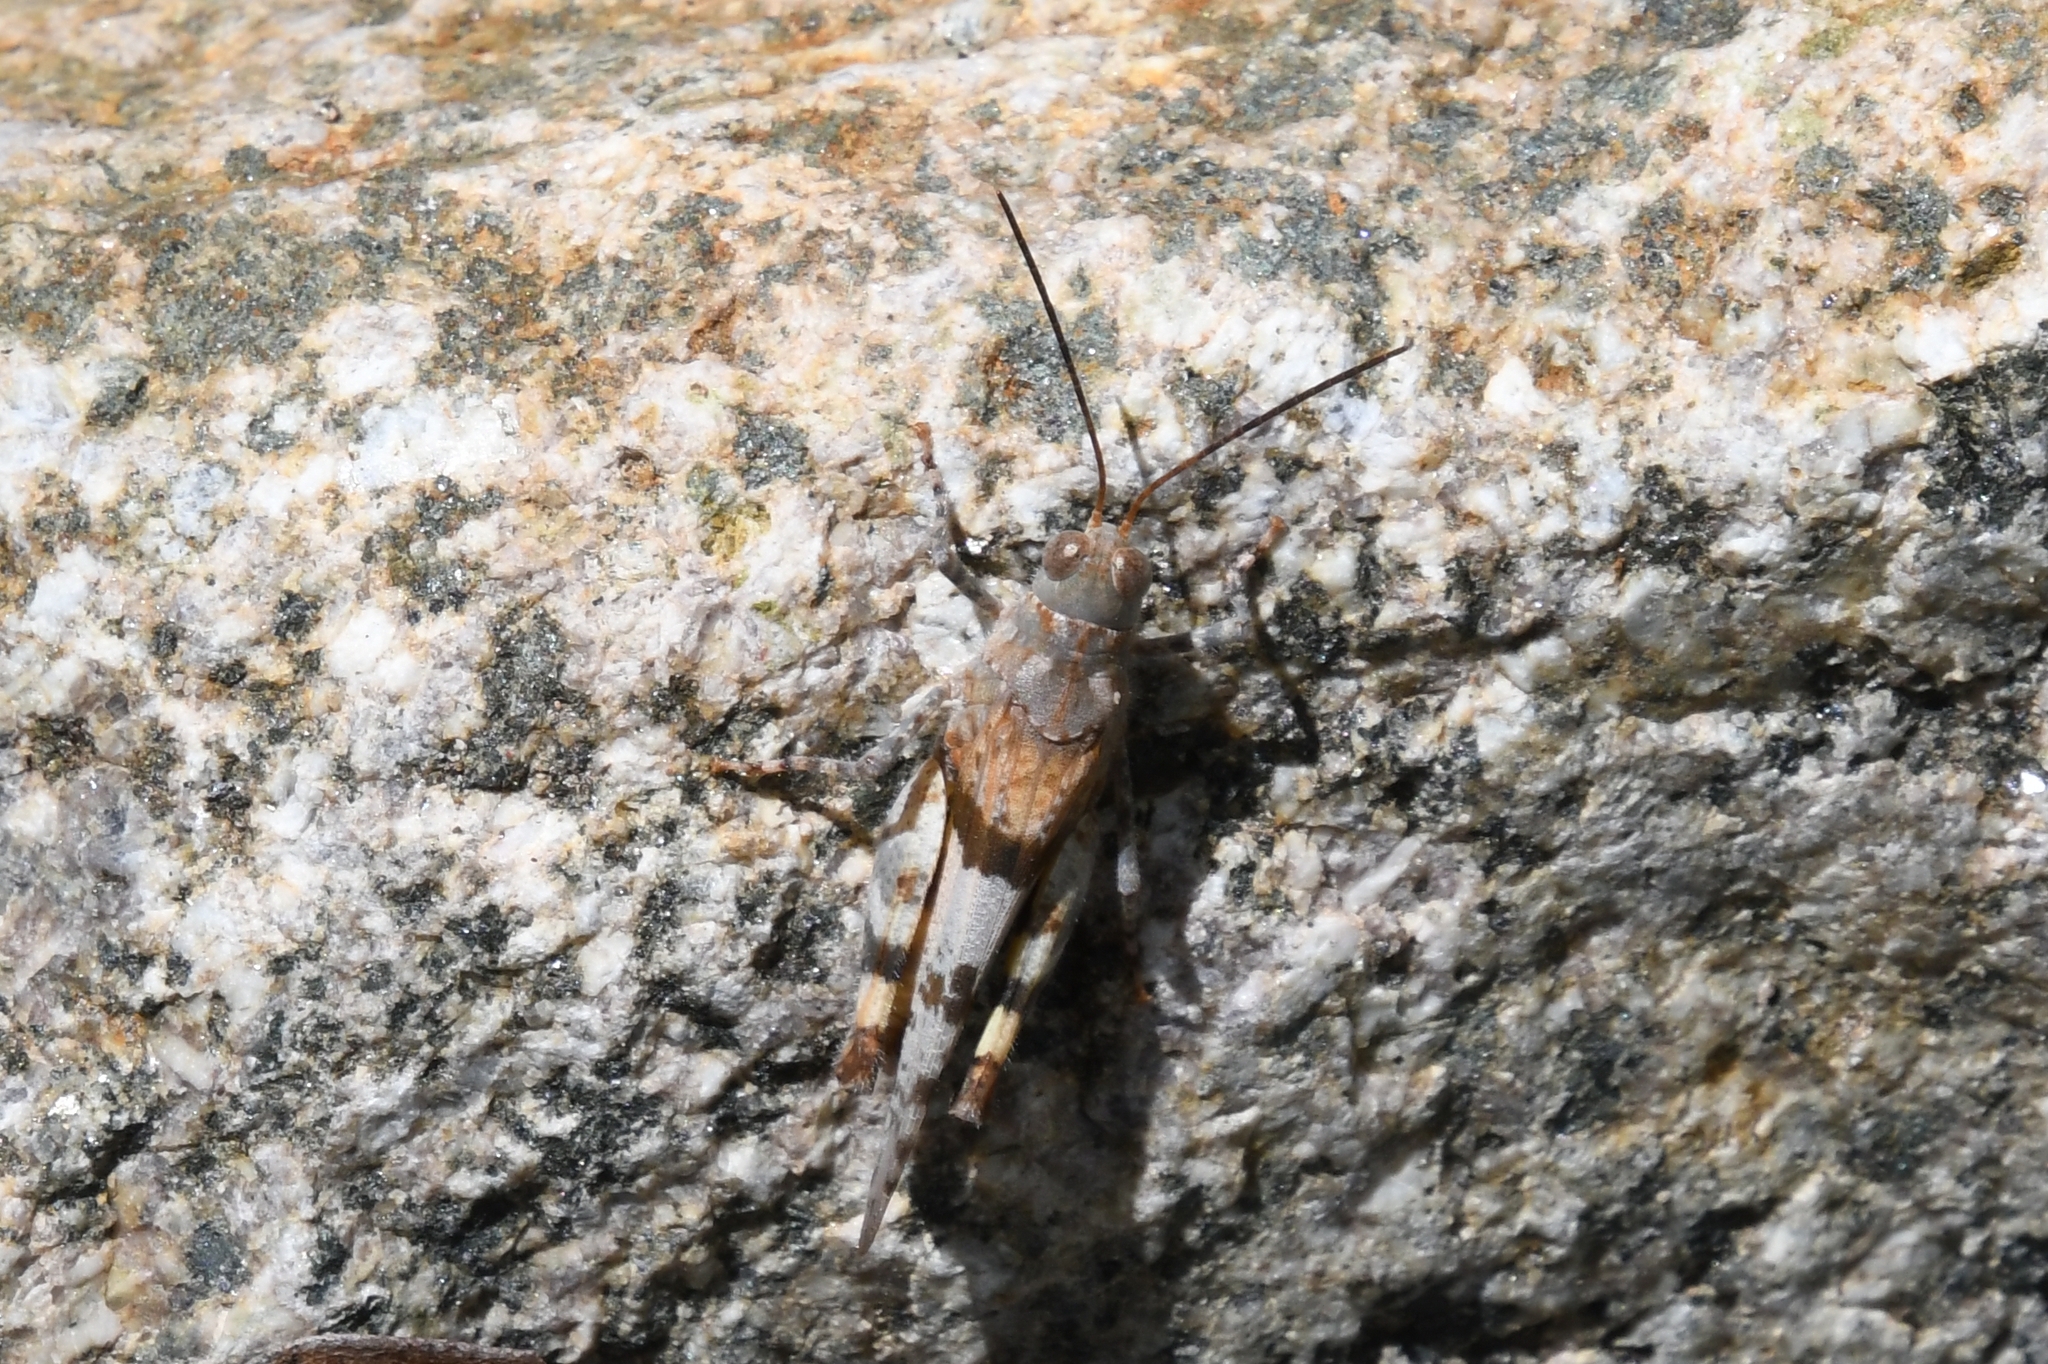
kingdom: Animalia
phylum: Arthropoda
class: Insecta
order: Orthoptera
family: Acrididae
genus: Heliastus
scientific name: Heliastus benjamini
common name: Arroyo grasshopper
